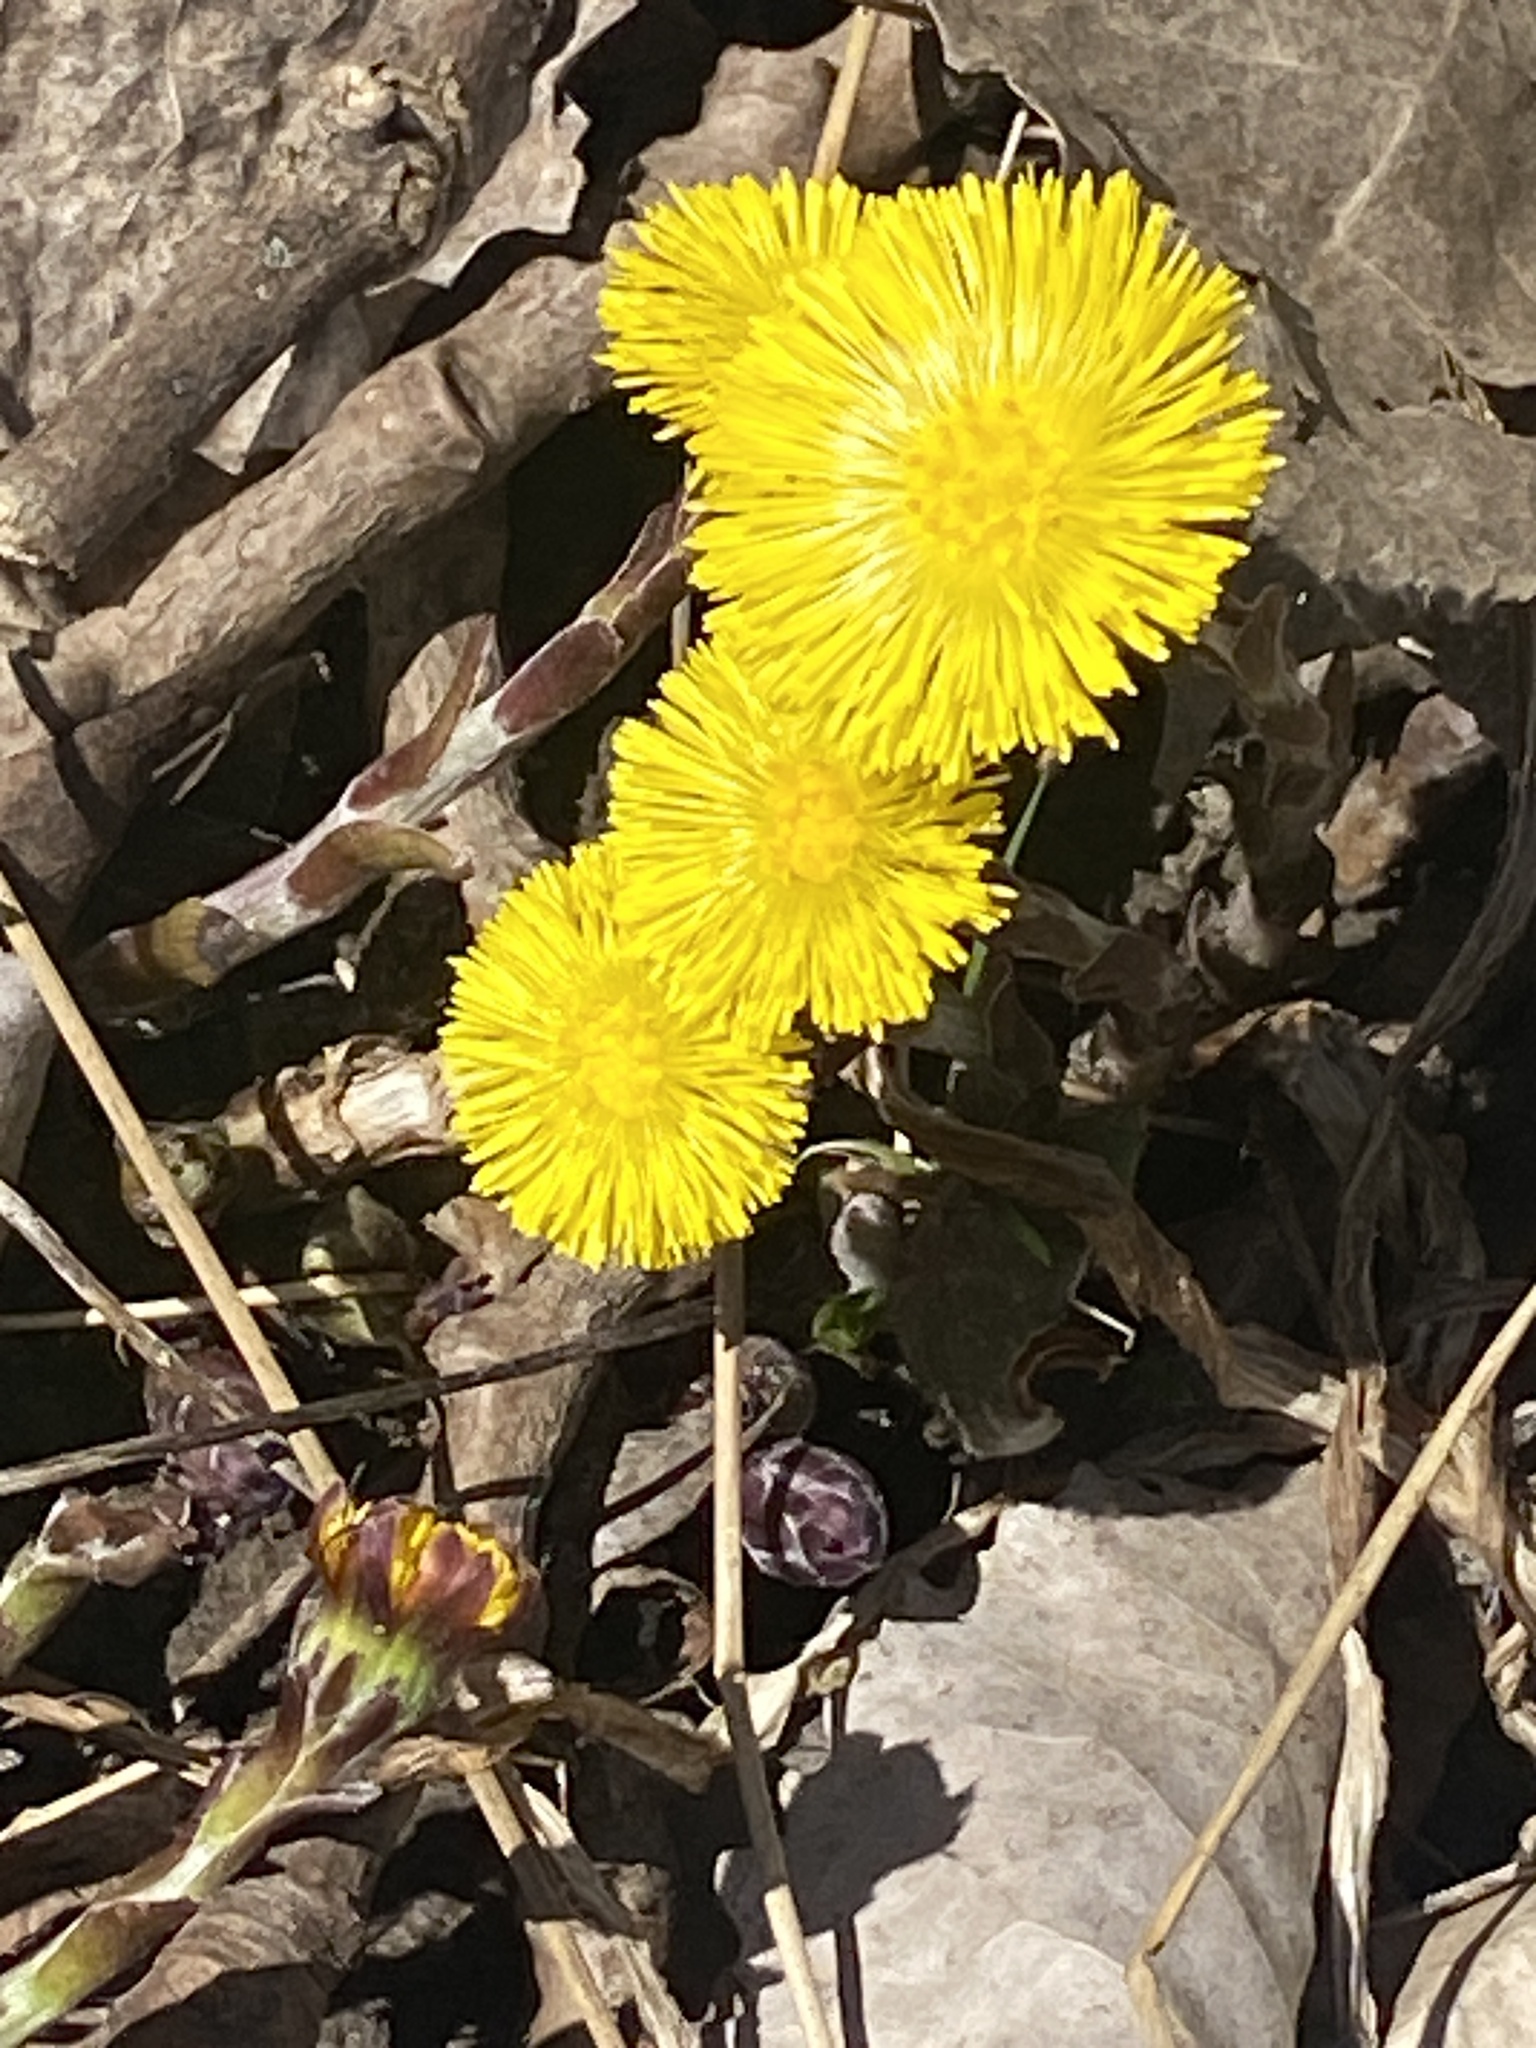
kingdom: Plantae
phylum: Tracheophyta
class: Magnoliopsida
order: Asterales
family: Asteraceae
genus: Tussilago
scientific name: Tussilago farfara
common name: Coltsfoot
